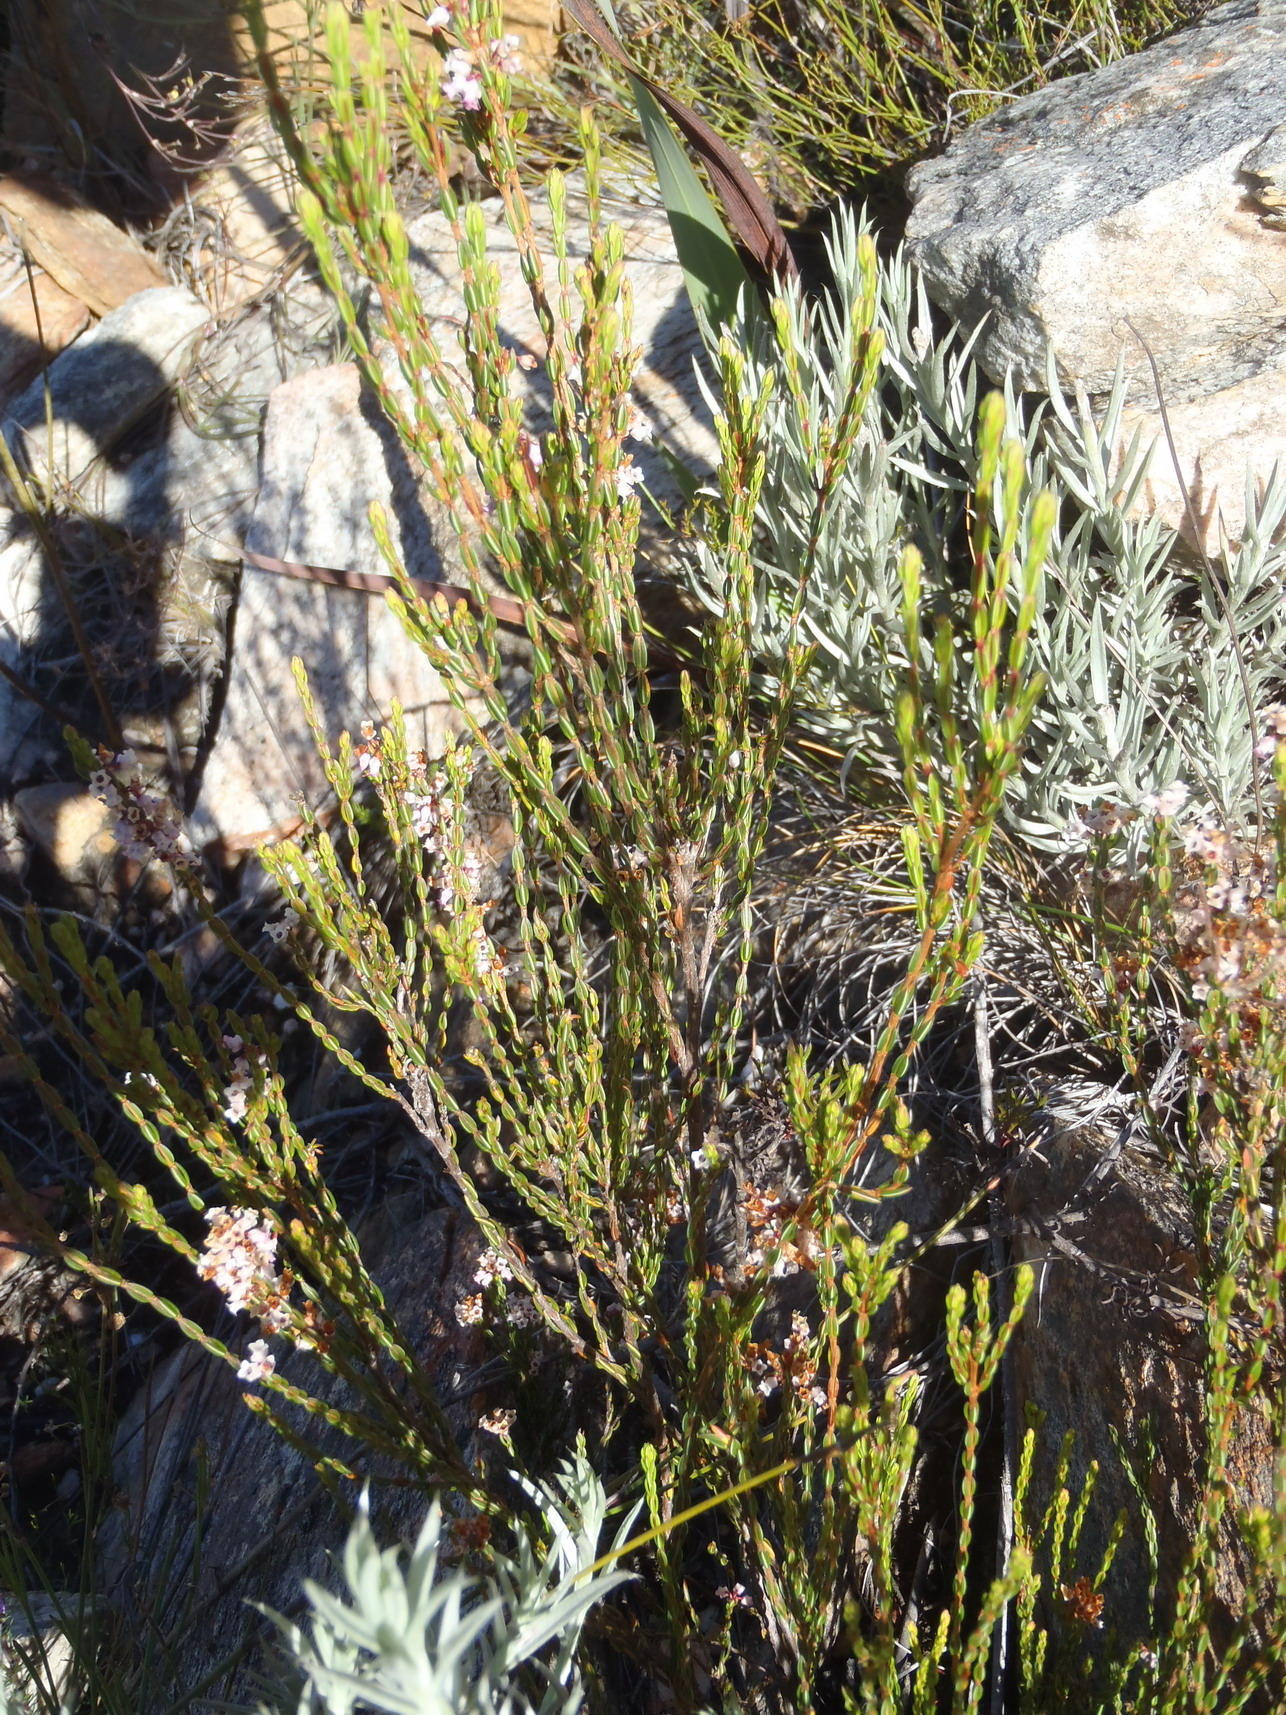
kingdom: Plantae
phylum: Tracheophyta
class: Magnoliopsida
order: Ericales
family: Ericaceae
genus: Erica
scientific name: Erica articularis
